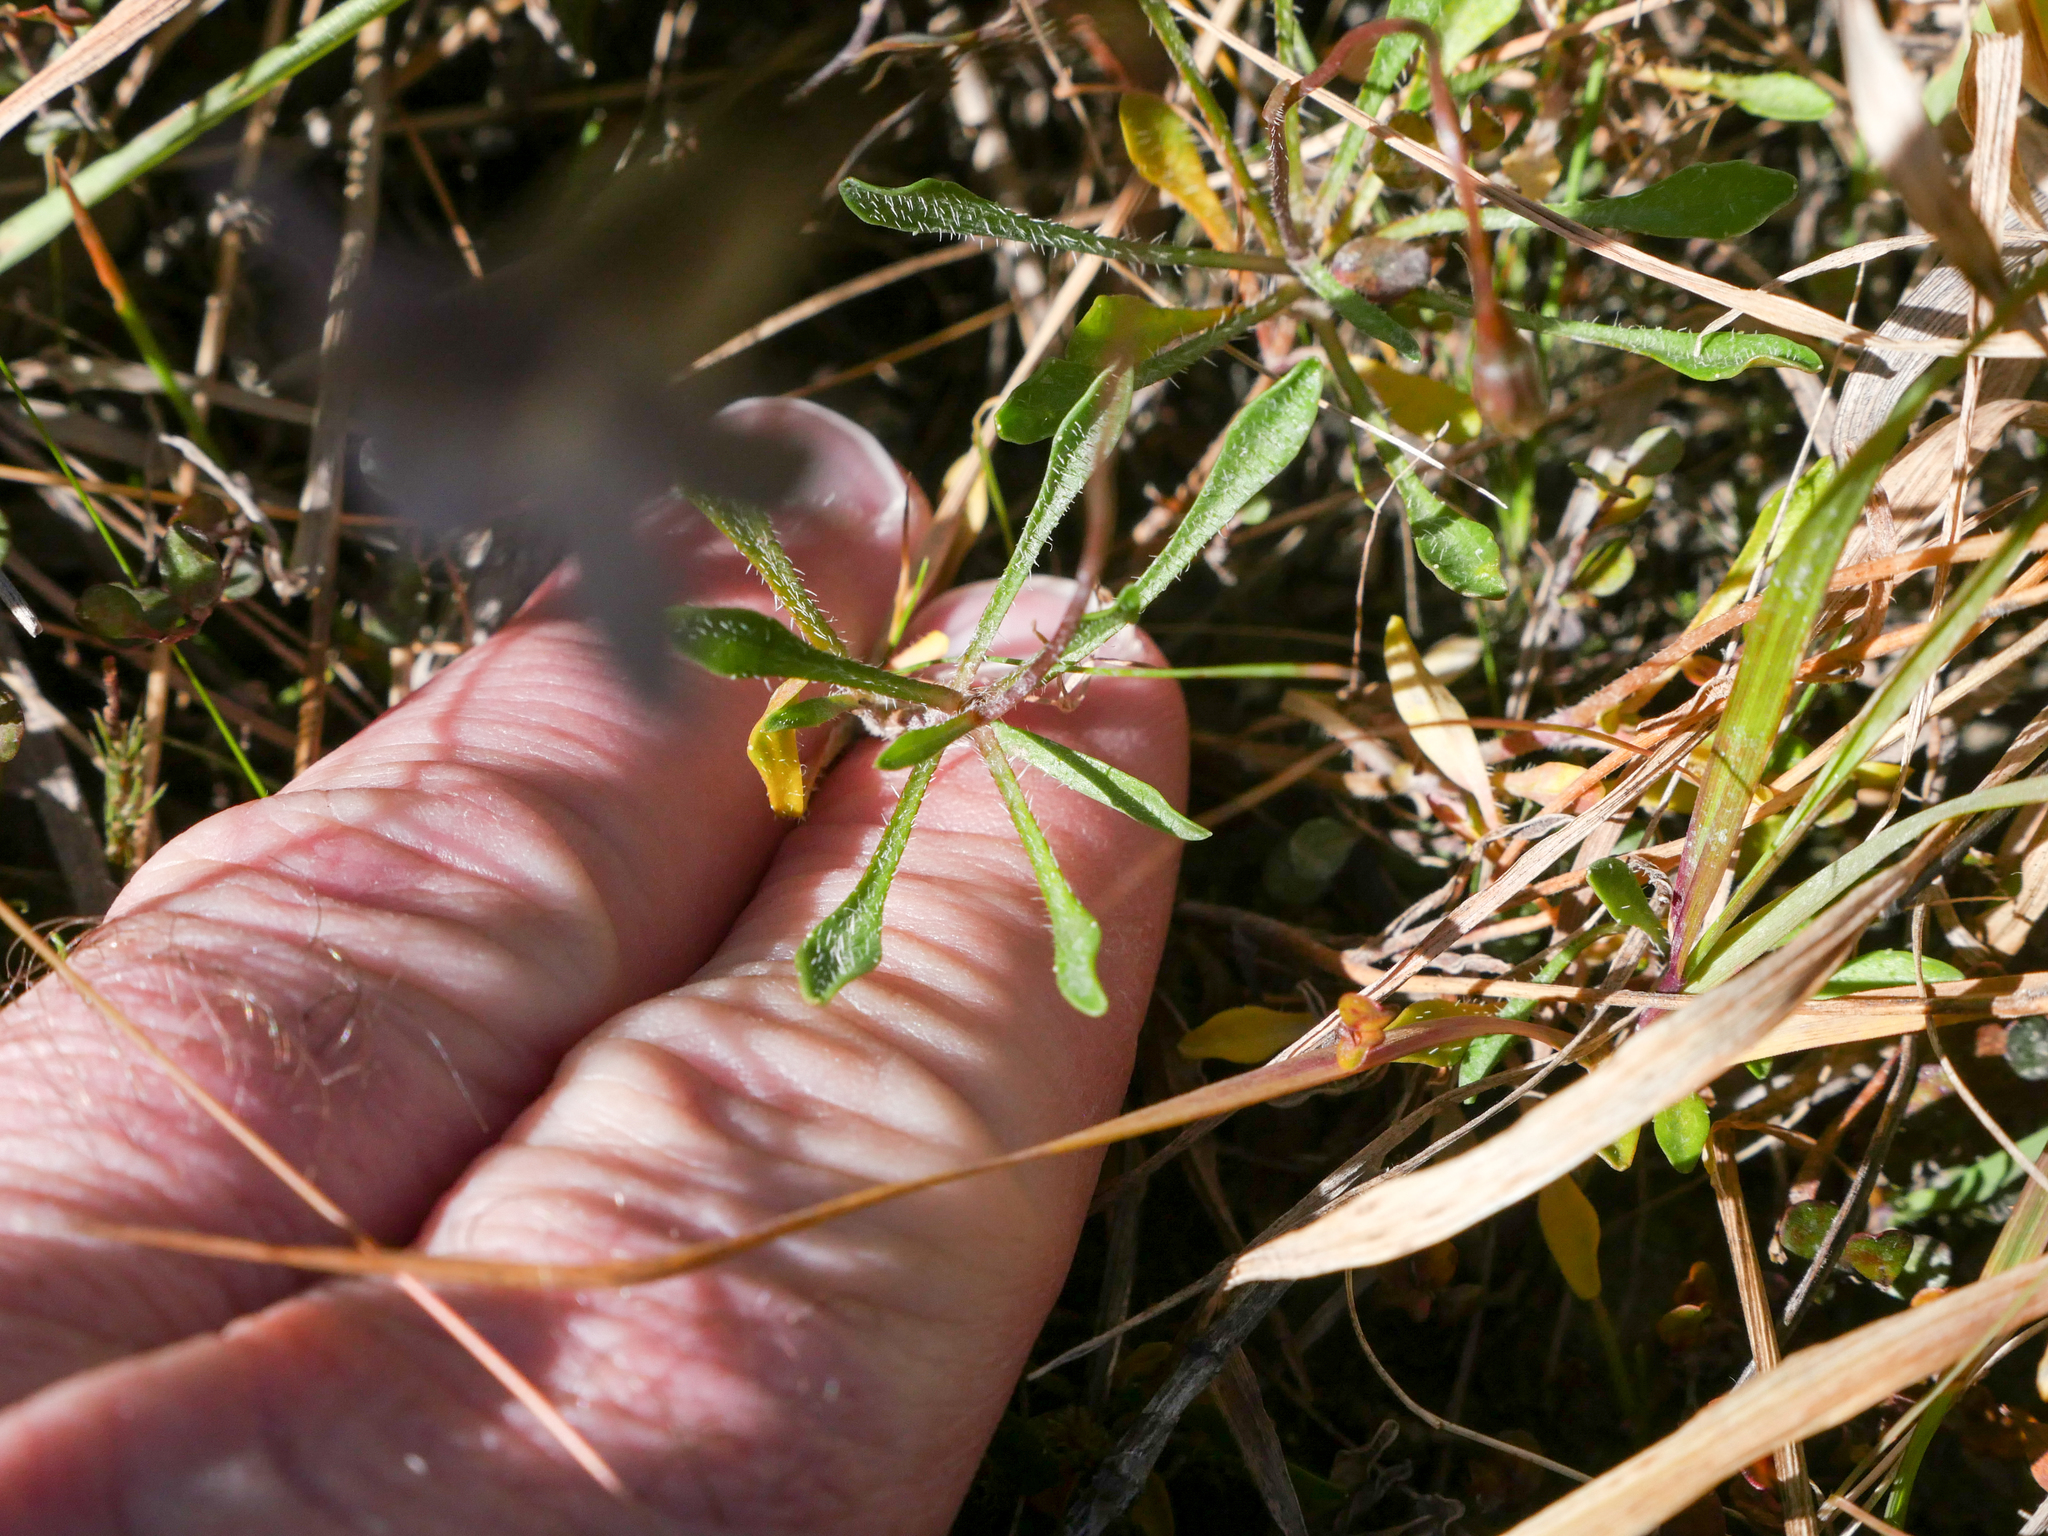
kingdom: Plantae
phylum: Tracheophyta
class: Magnoliopsida
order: Asterales
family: Campanulaceae
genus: Wahlenbergia
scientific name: Wahlenbergia albomarginata
